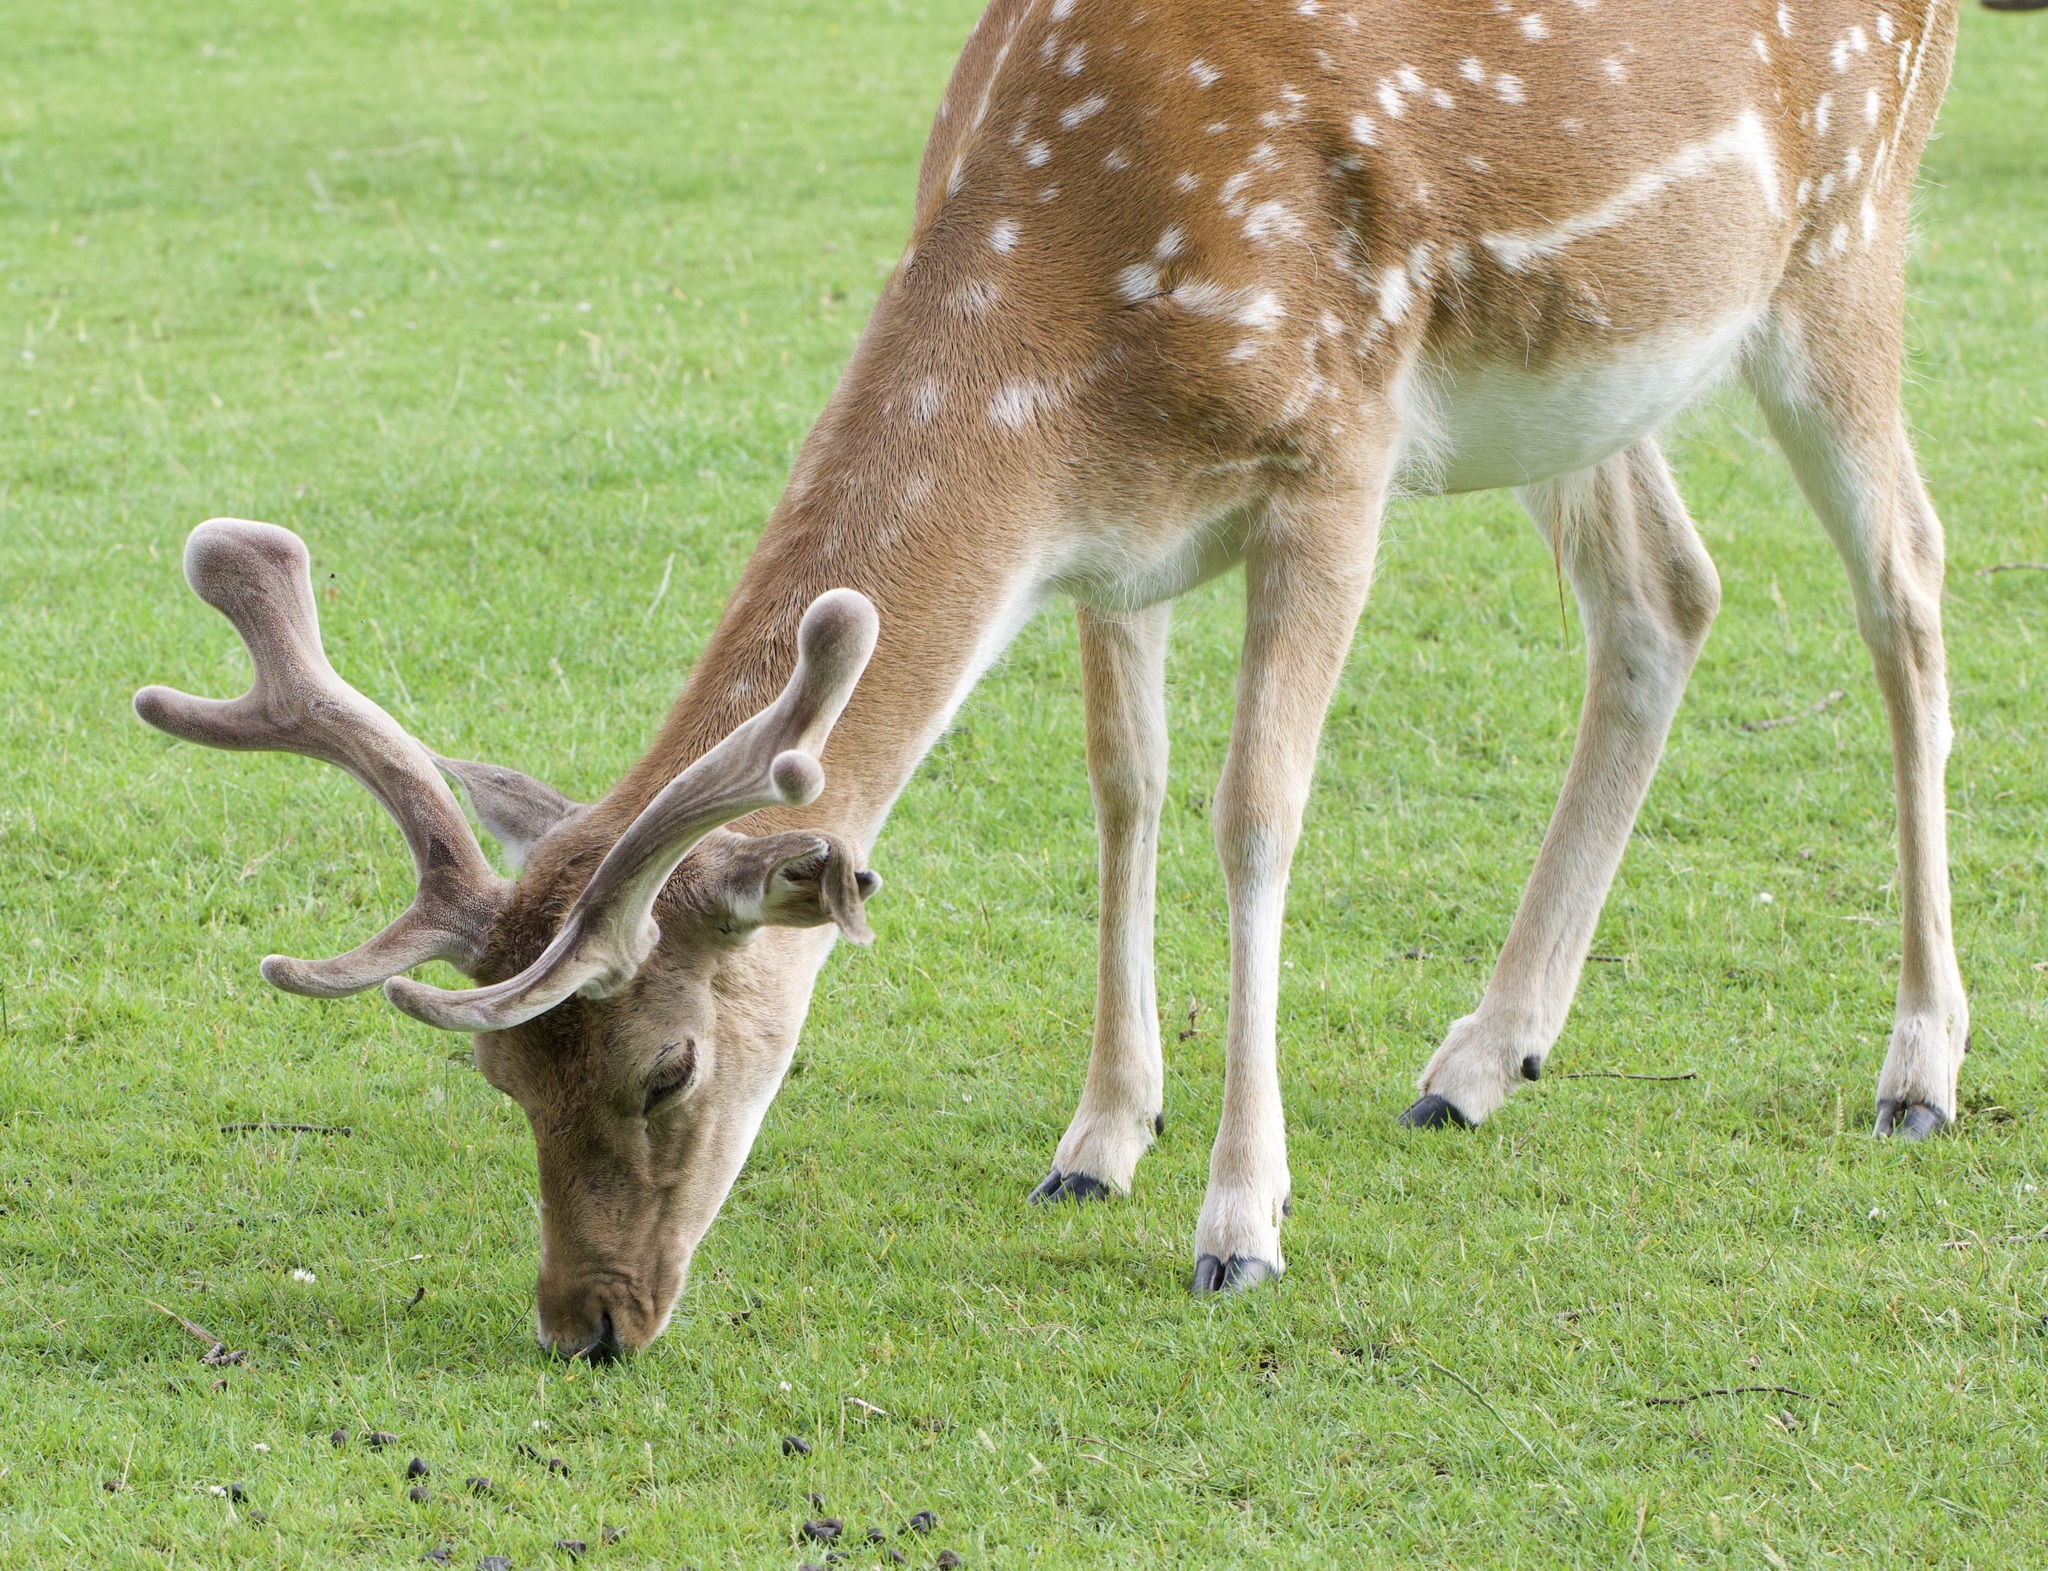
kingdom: Animalia
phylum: Chordata
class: Mammalia
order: Artiodactyla
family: Cervidae
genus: Dama
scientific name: Dama dama
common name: Fallow deer
